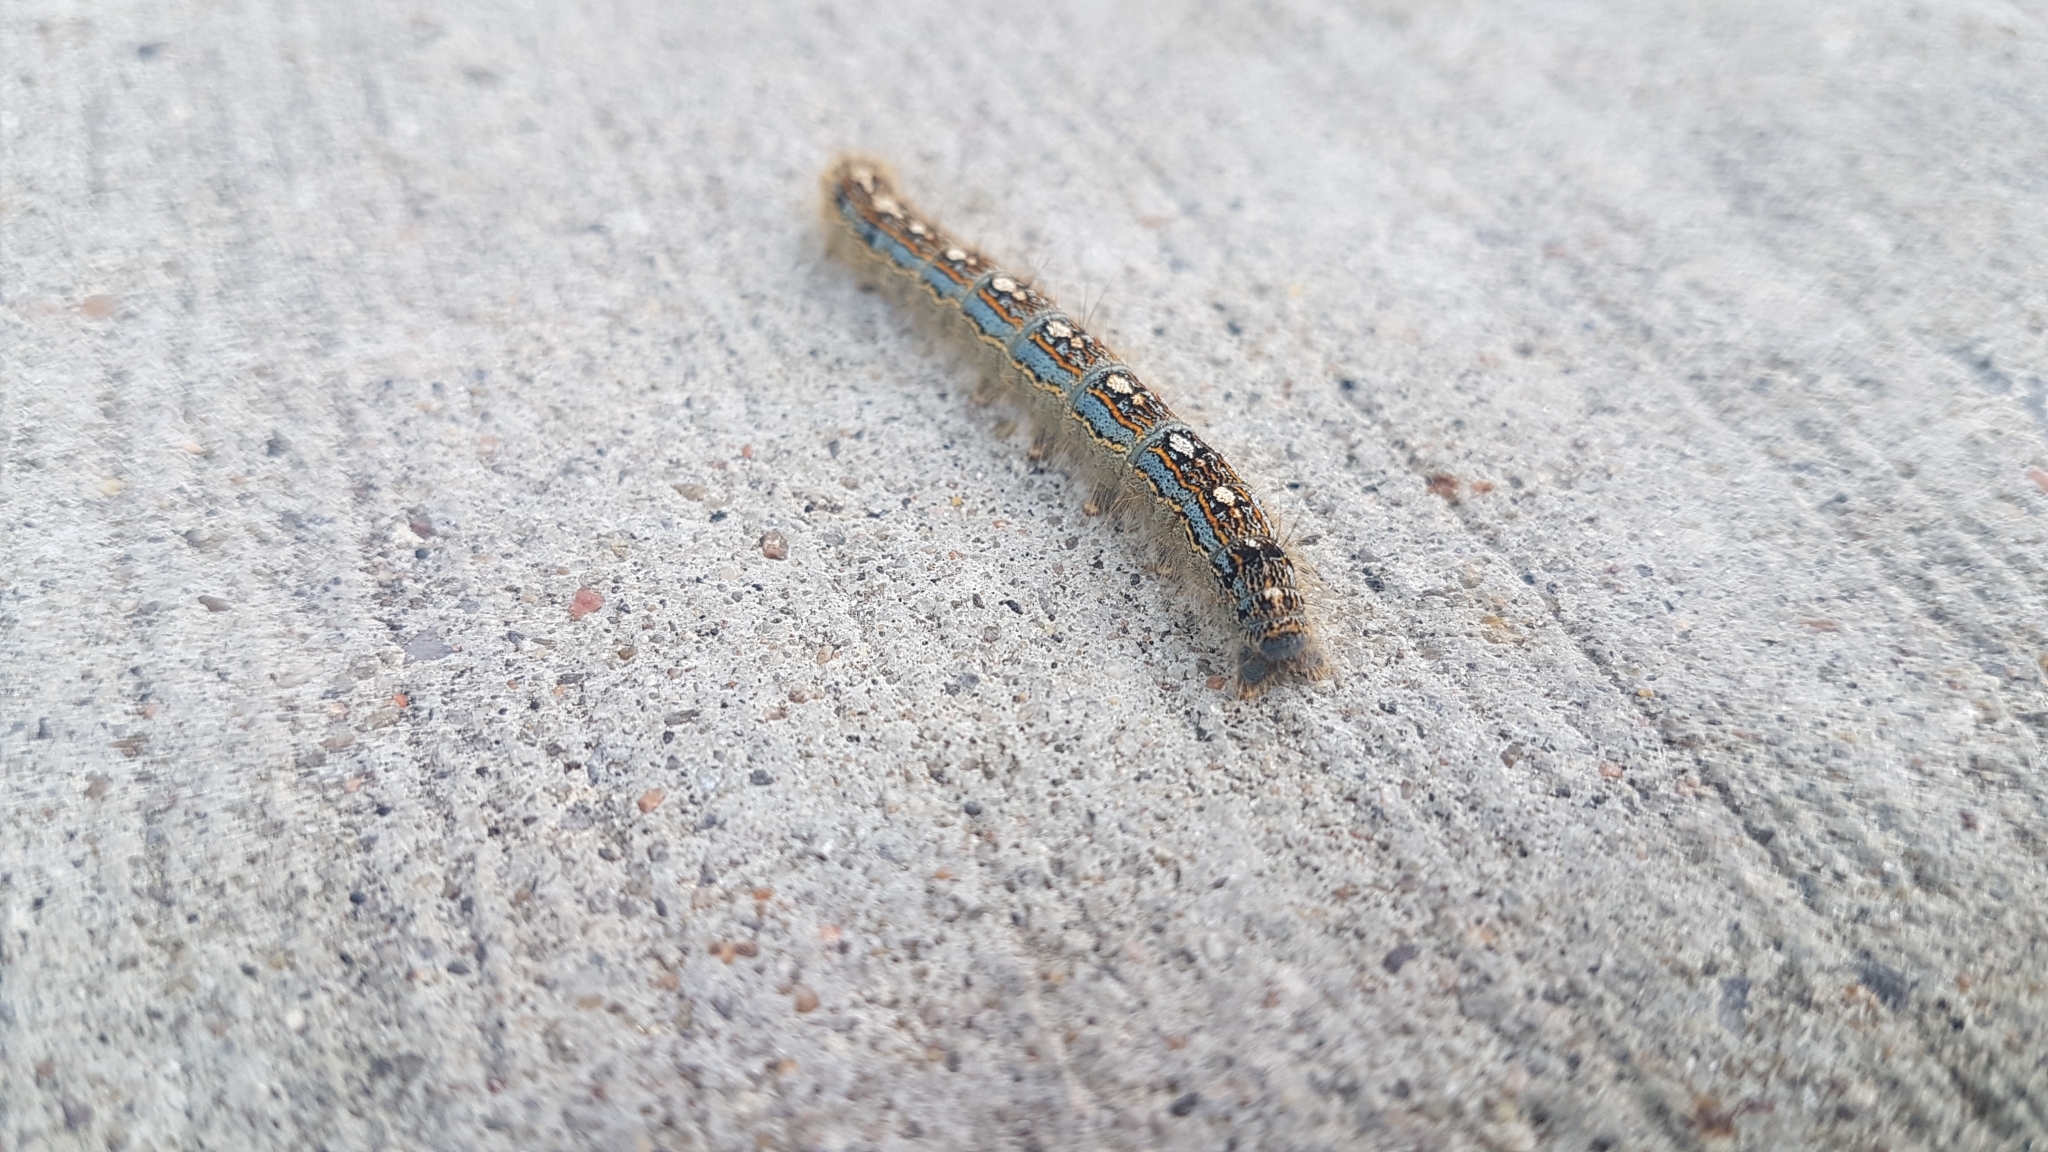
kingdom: Animalia
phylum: Arthropoda
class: Insecta
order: Lepidoptera
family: Lasiocampidae
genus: Malacosoma
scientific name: Malacosoma disstria
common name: Forest tent caterpillar
